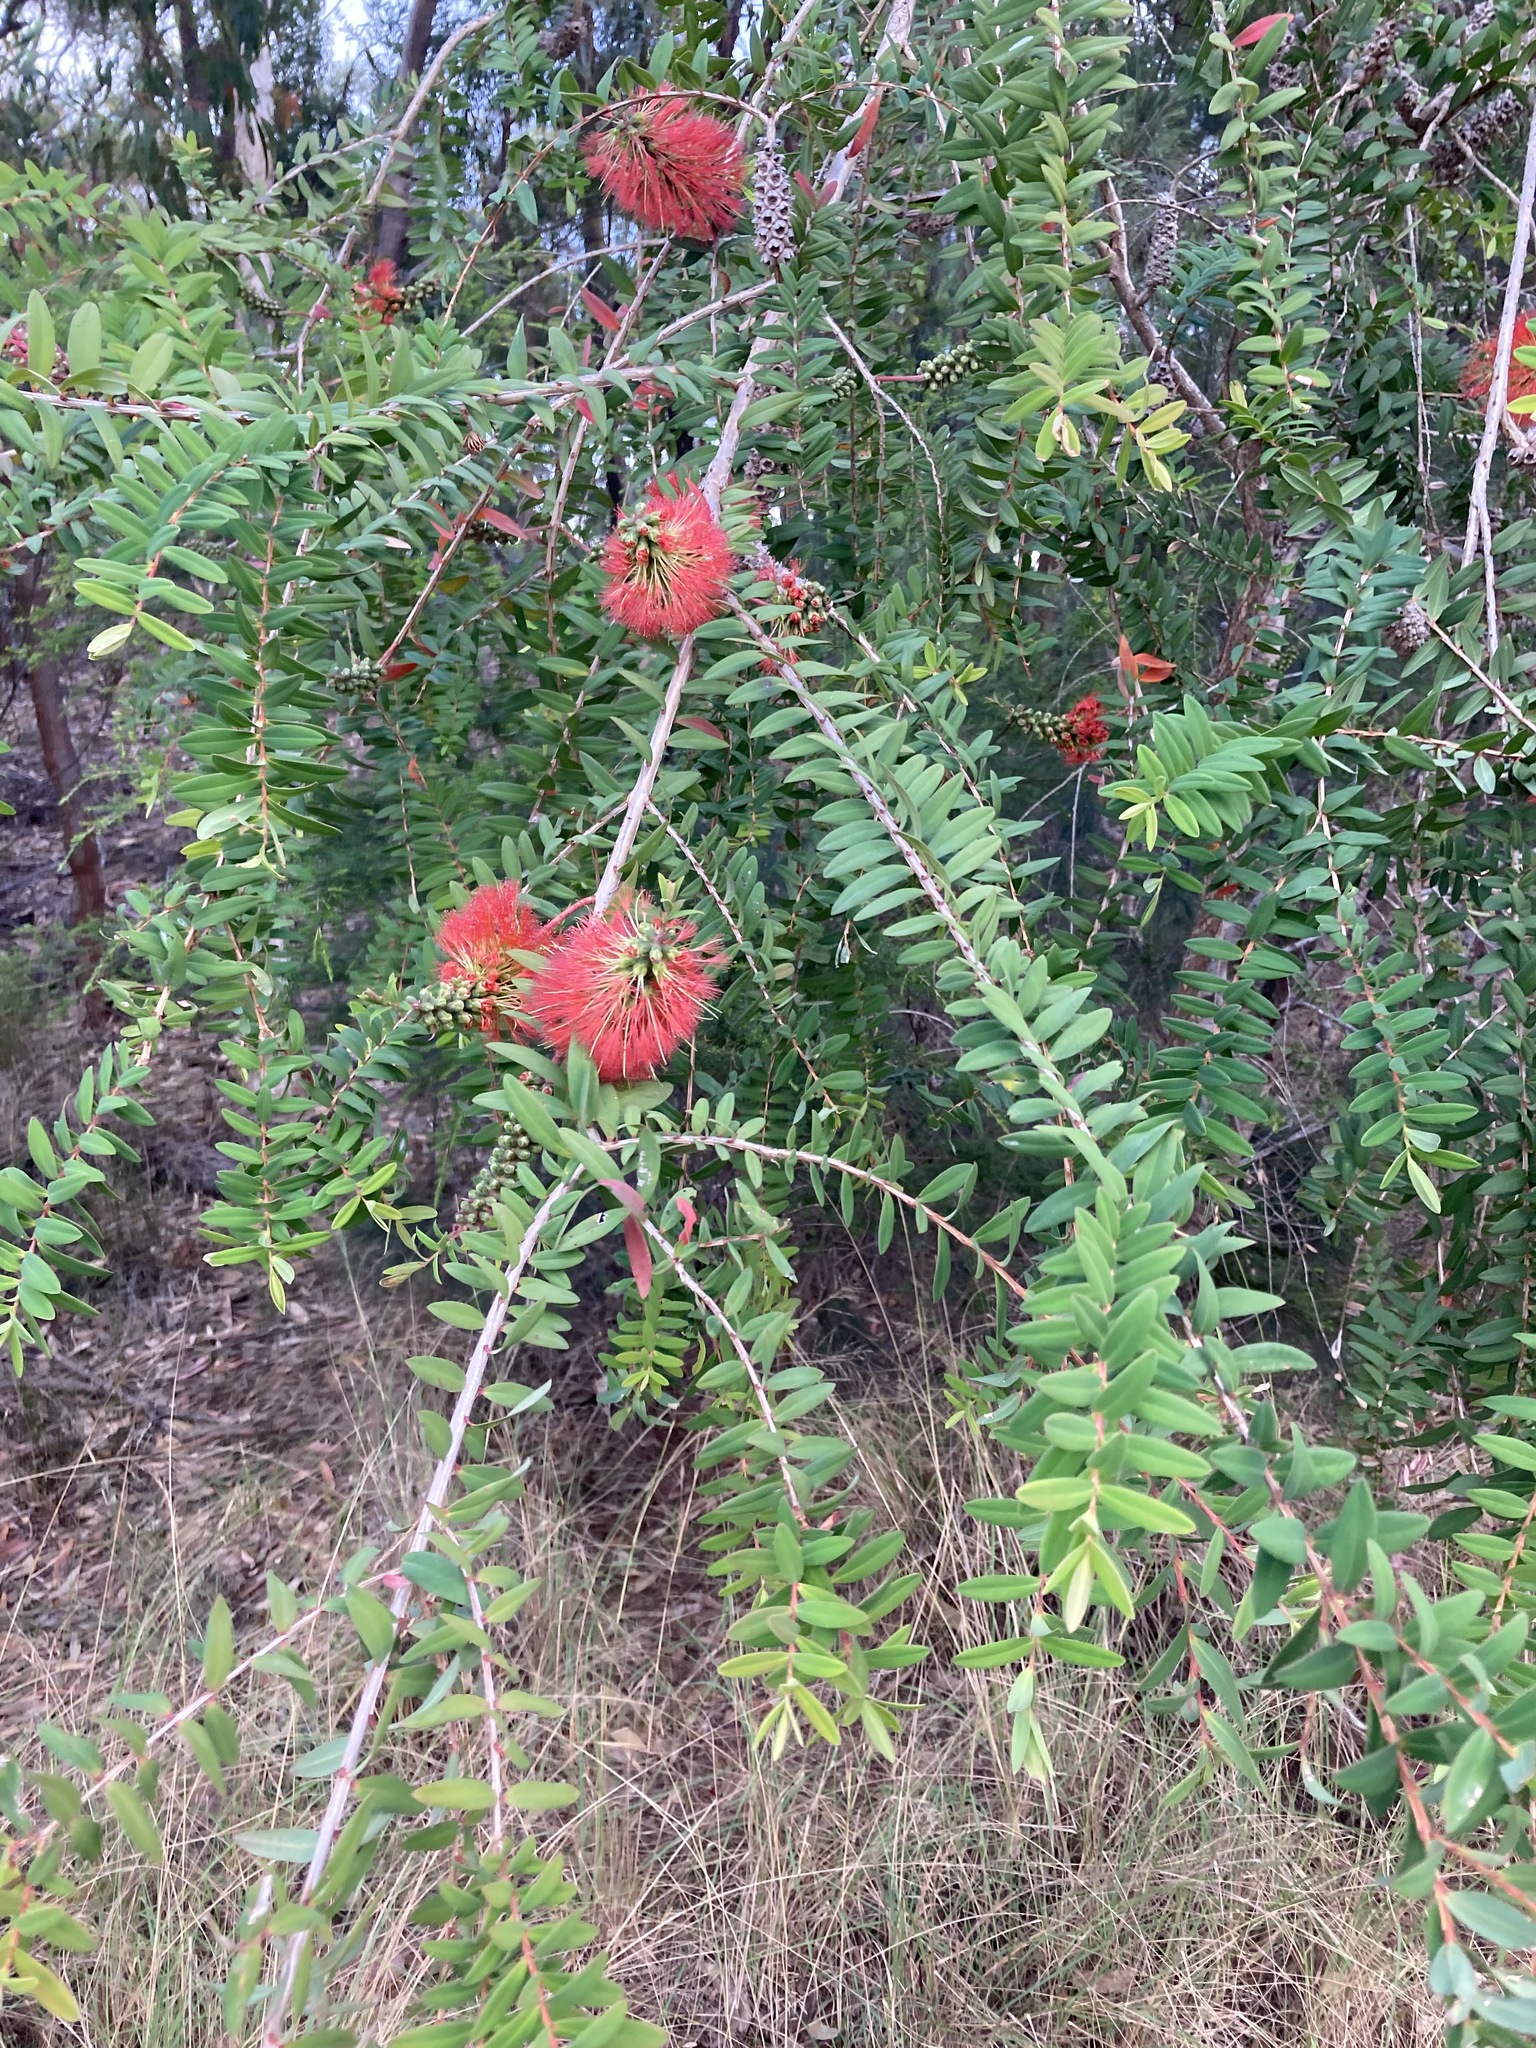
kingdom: Plantae
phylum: Tracheophyta
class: Magnoliopsida
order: Myrtales
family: Myrtaceae
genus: Melaleuca
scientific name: Melaleuca hypericifolia
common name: Red honey myrtle
